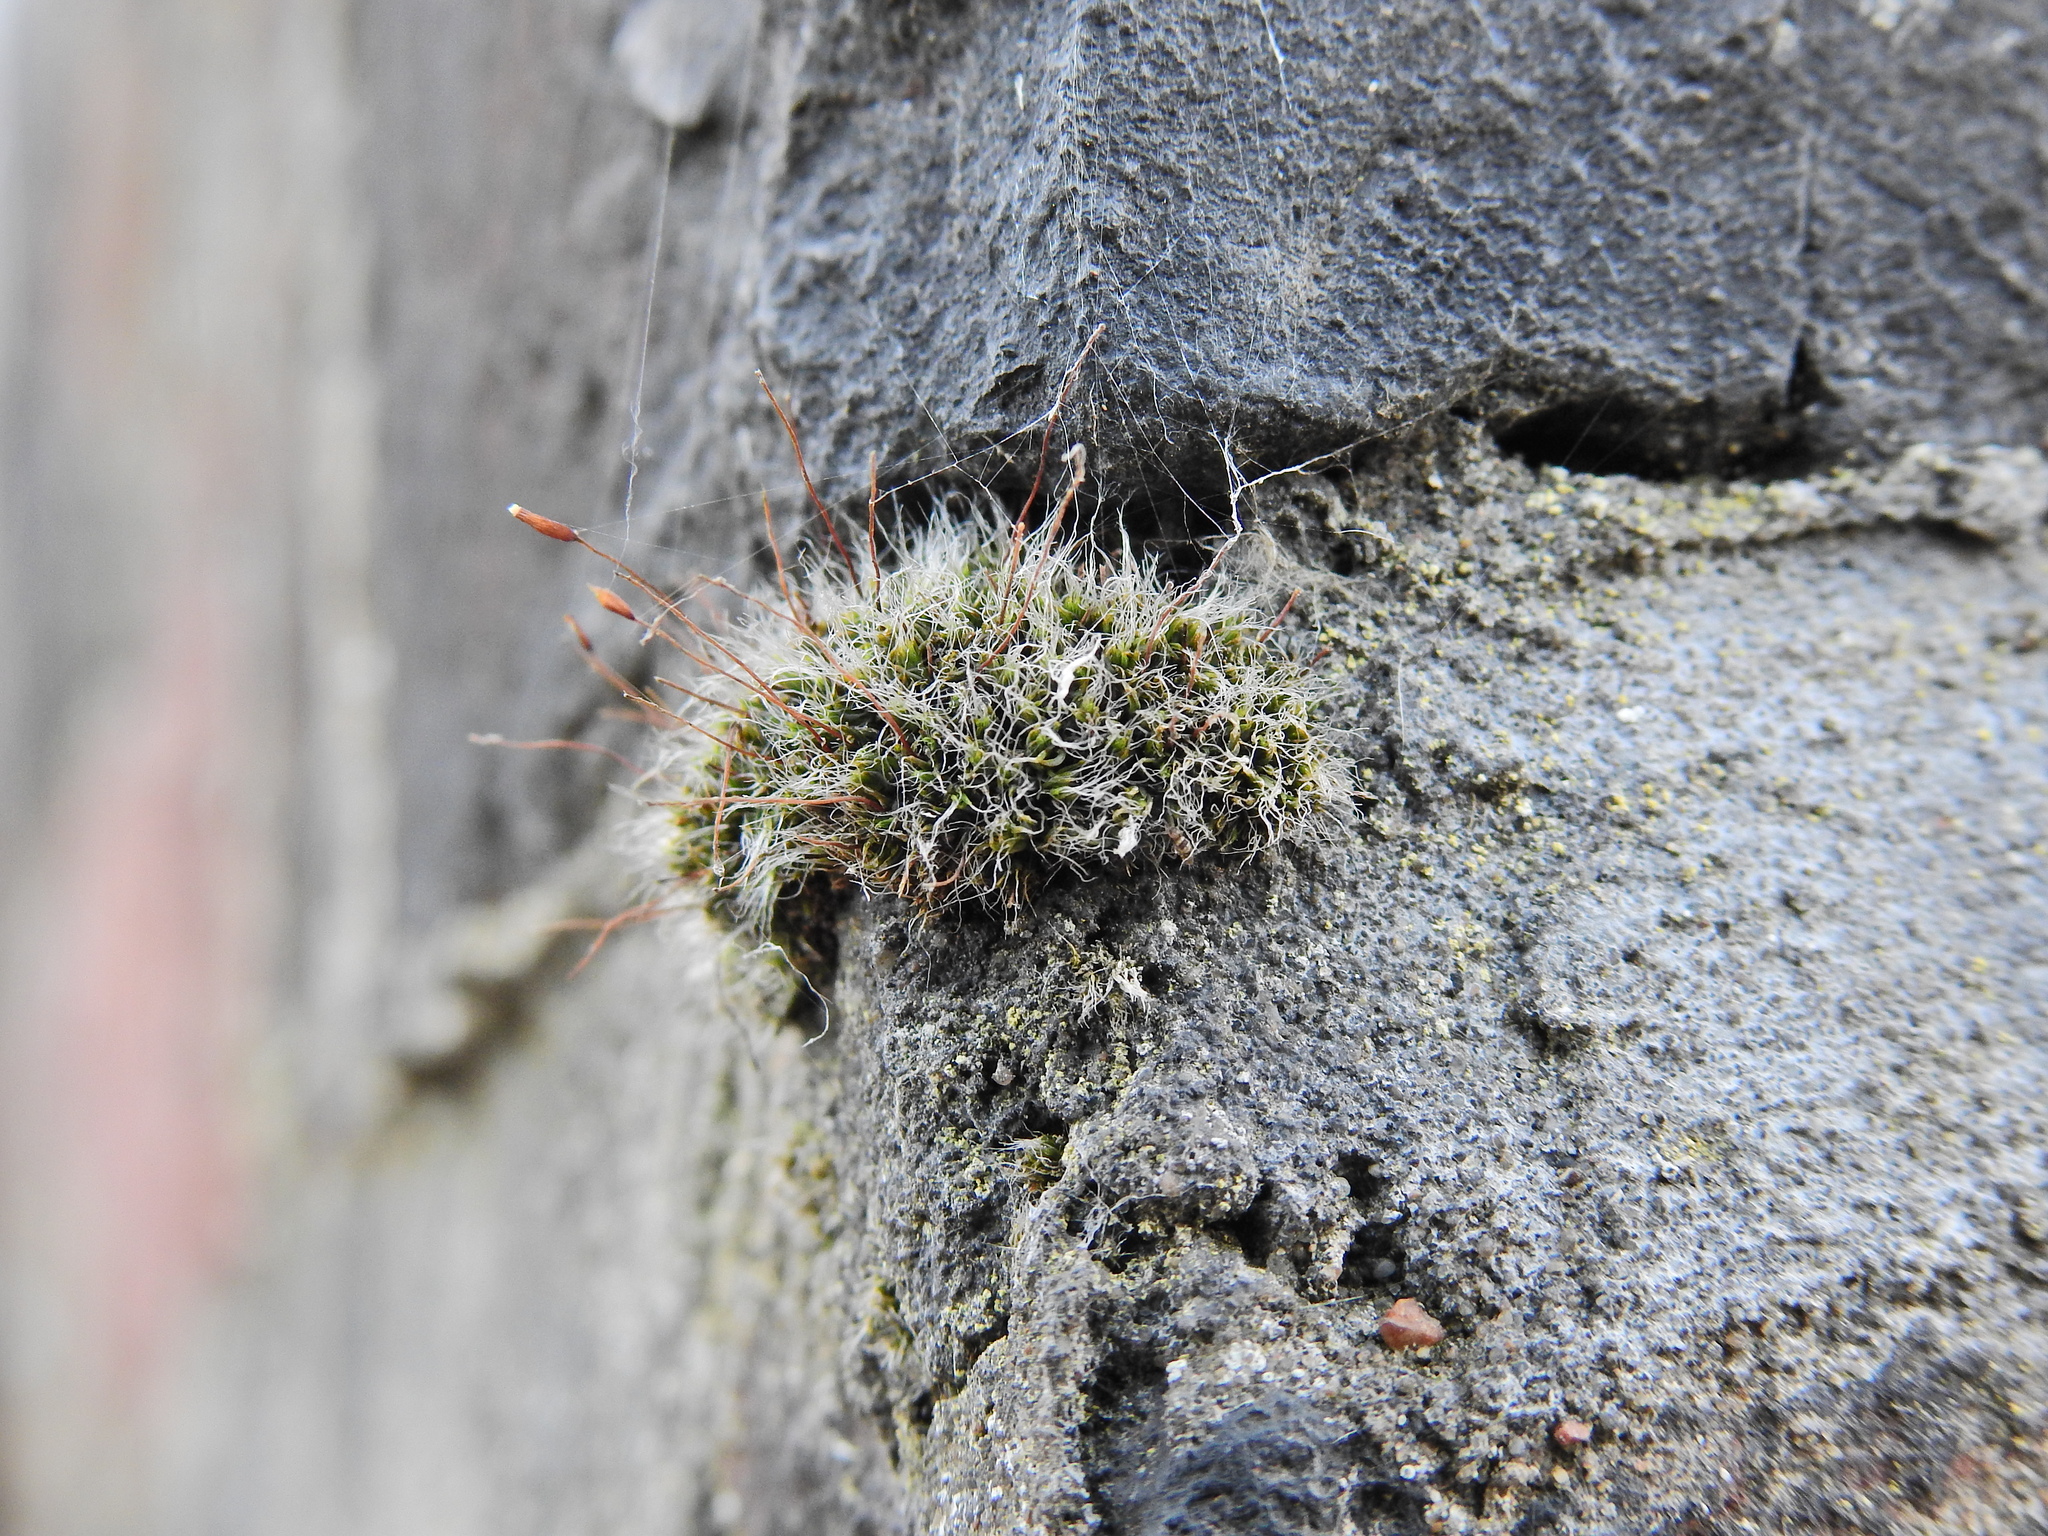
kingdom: Plantae
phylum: Bryophyta
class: Bryopsida
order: Pottiales
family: Pottiaceae
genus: Tortula
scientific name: Tortula muralis
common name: Wall screw-moss
